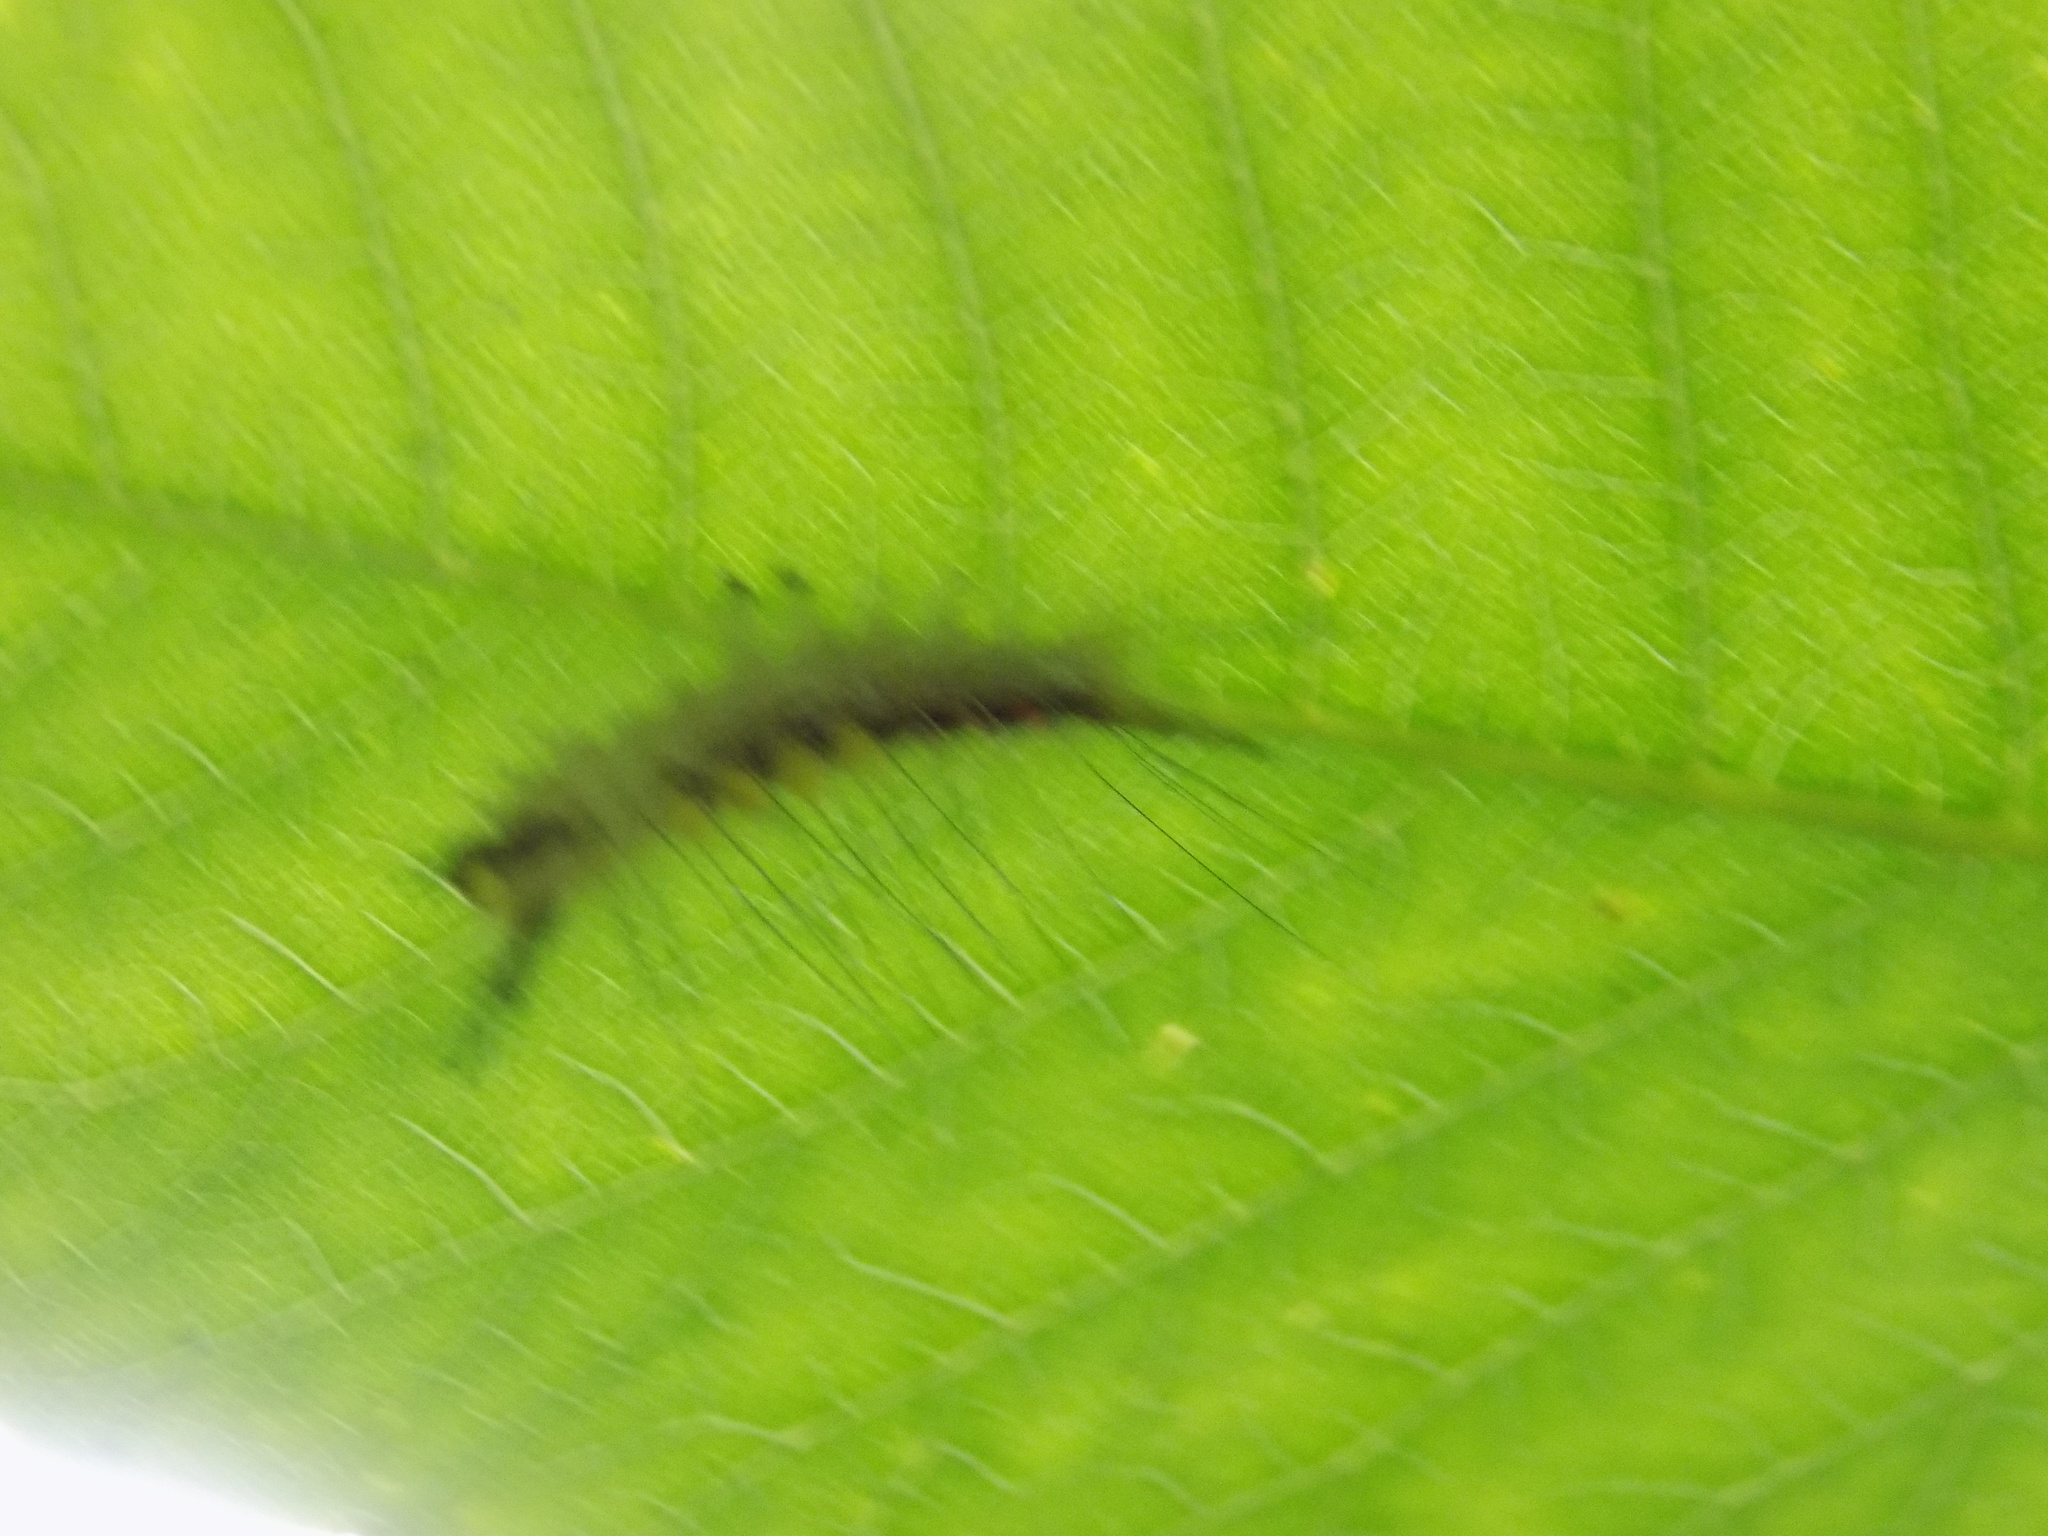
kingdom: Animalia
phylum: Arthropoda
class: Insecta
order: Lepidoptera
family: Erebidae
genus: Orgyia
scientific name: Orgyia leucostigma
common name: White-marked tussock moth
